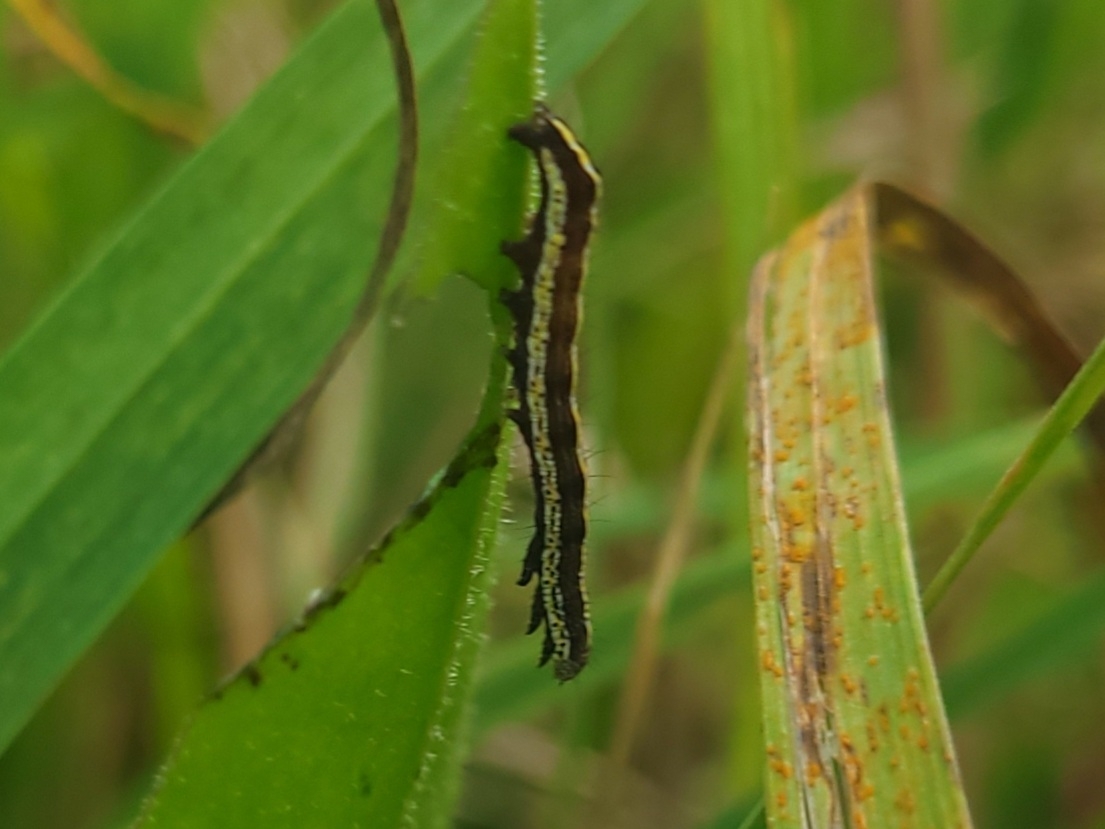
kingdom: Animalia
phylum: Arthropoda
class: Insecta
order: Lepidoptera
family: Noctuidae
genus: Cucullia
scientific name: Cucullia intermedia
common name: Goldenrod cutworm
